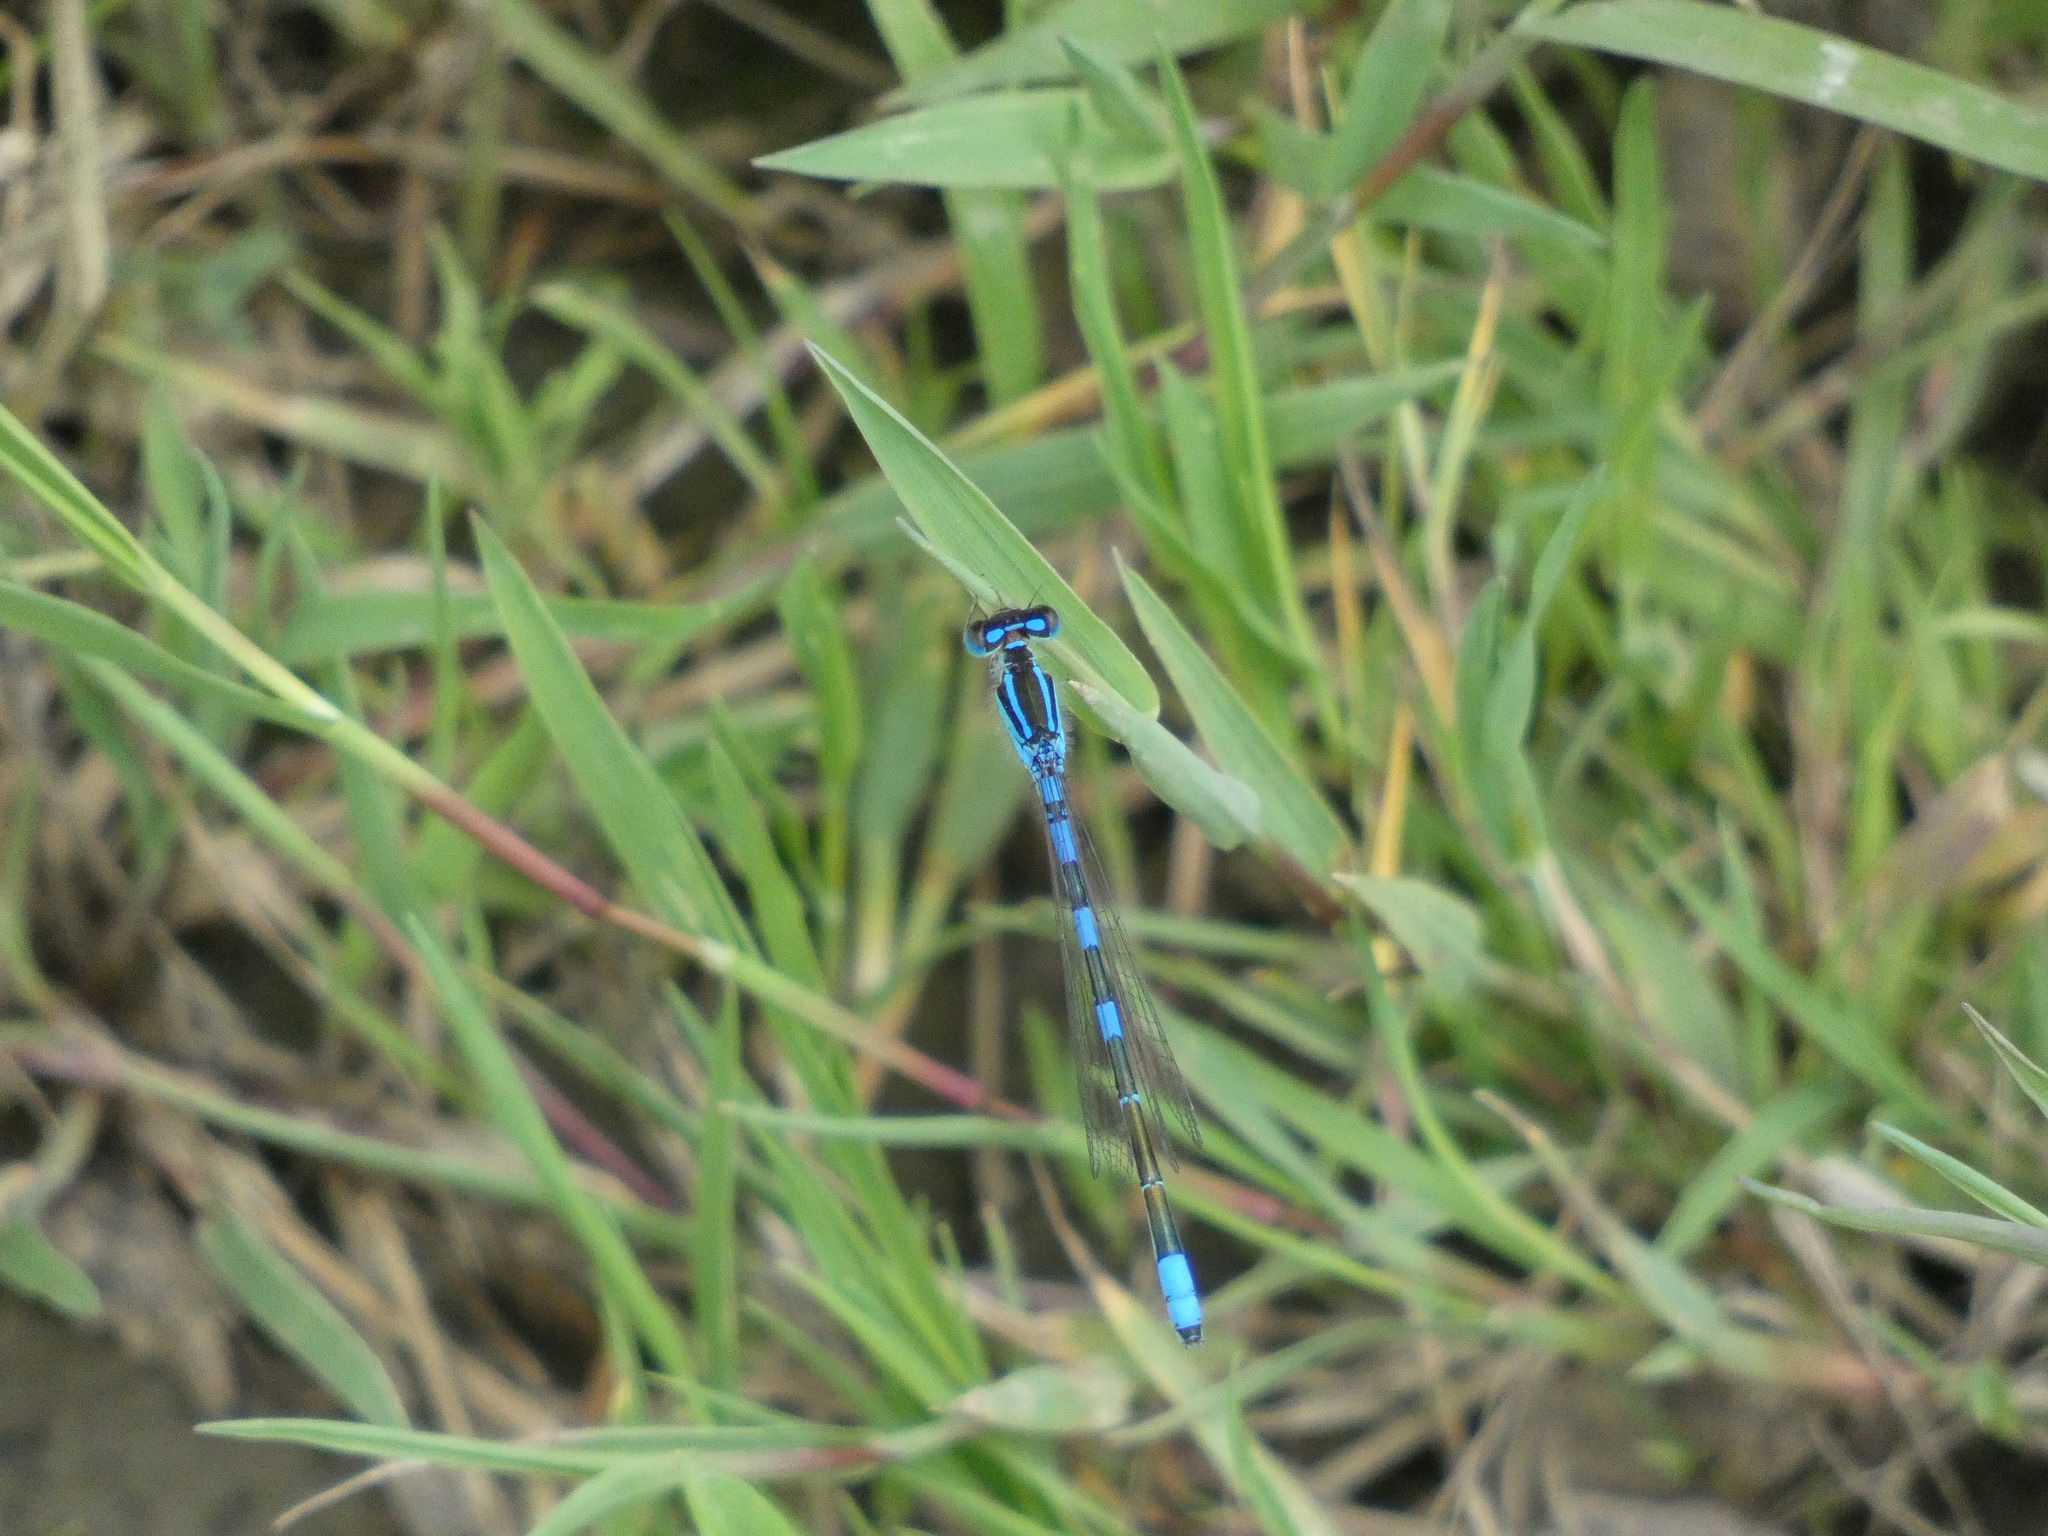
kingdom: Animalia
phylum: Arthropoda
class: Insecta
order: Odonata
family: Coenagrionidae
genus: Coenagrion
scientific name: Coenagrion scitulum
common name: Dainty bluet
